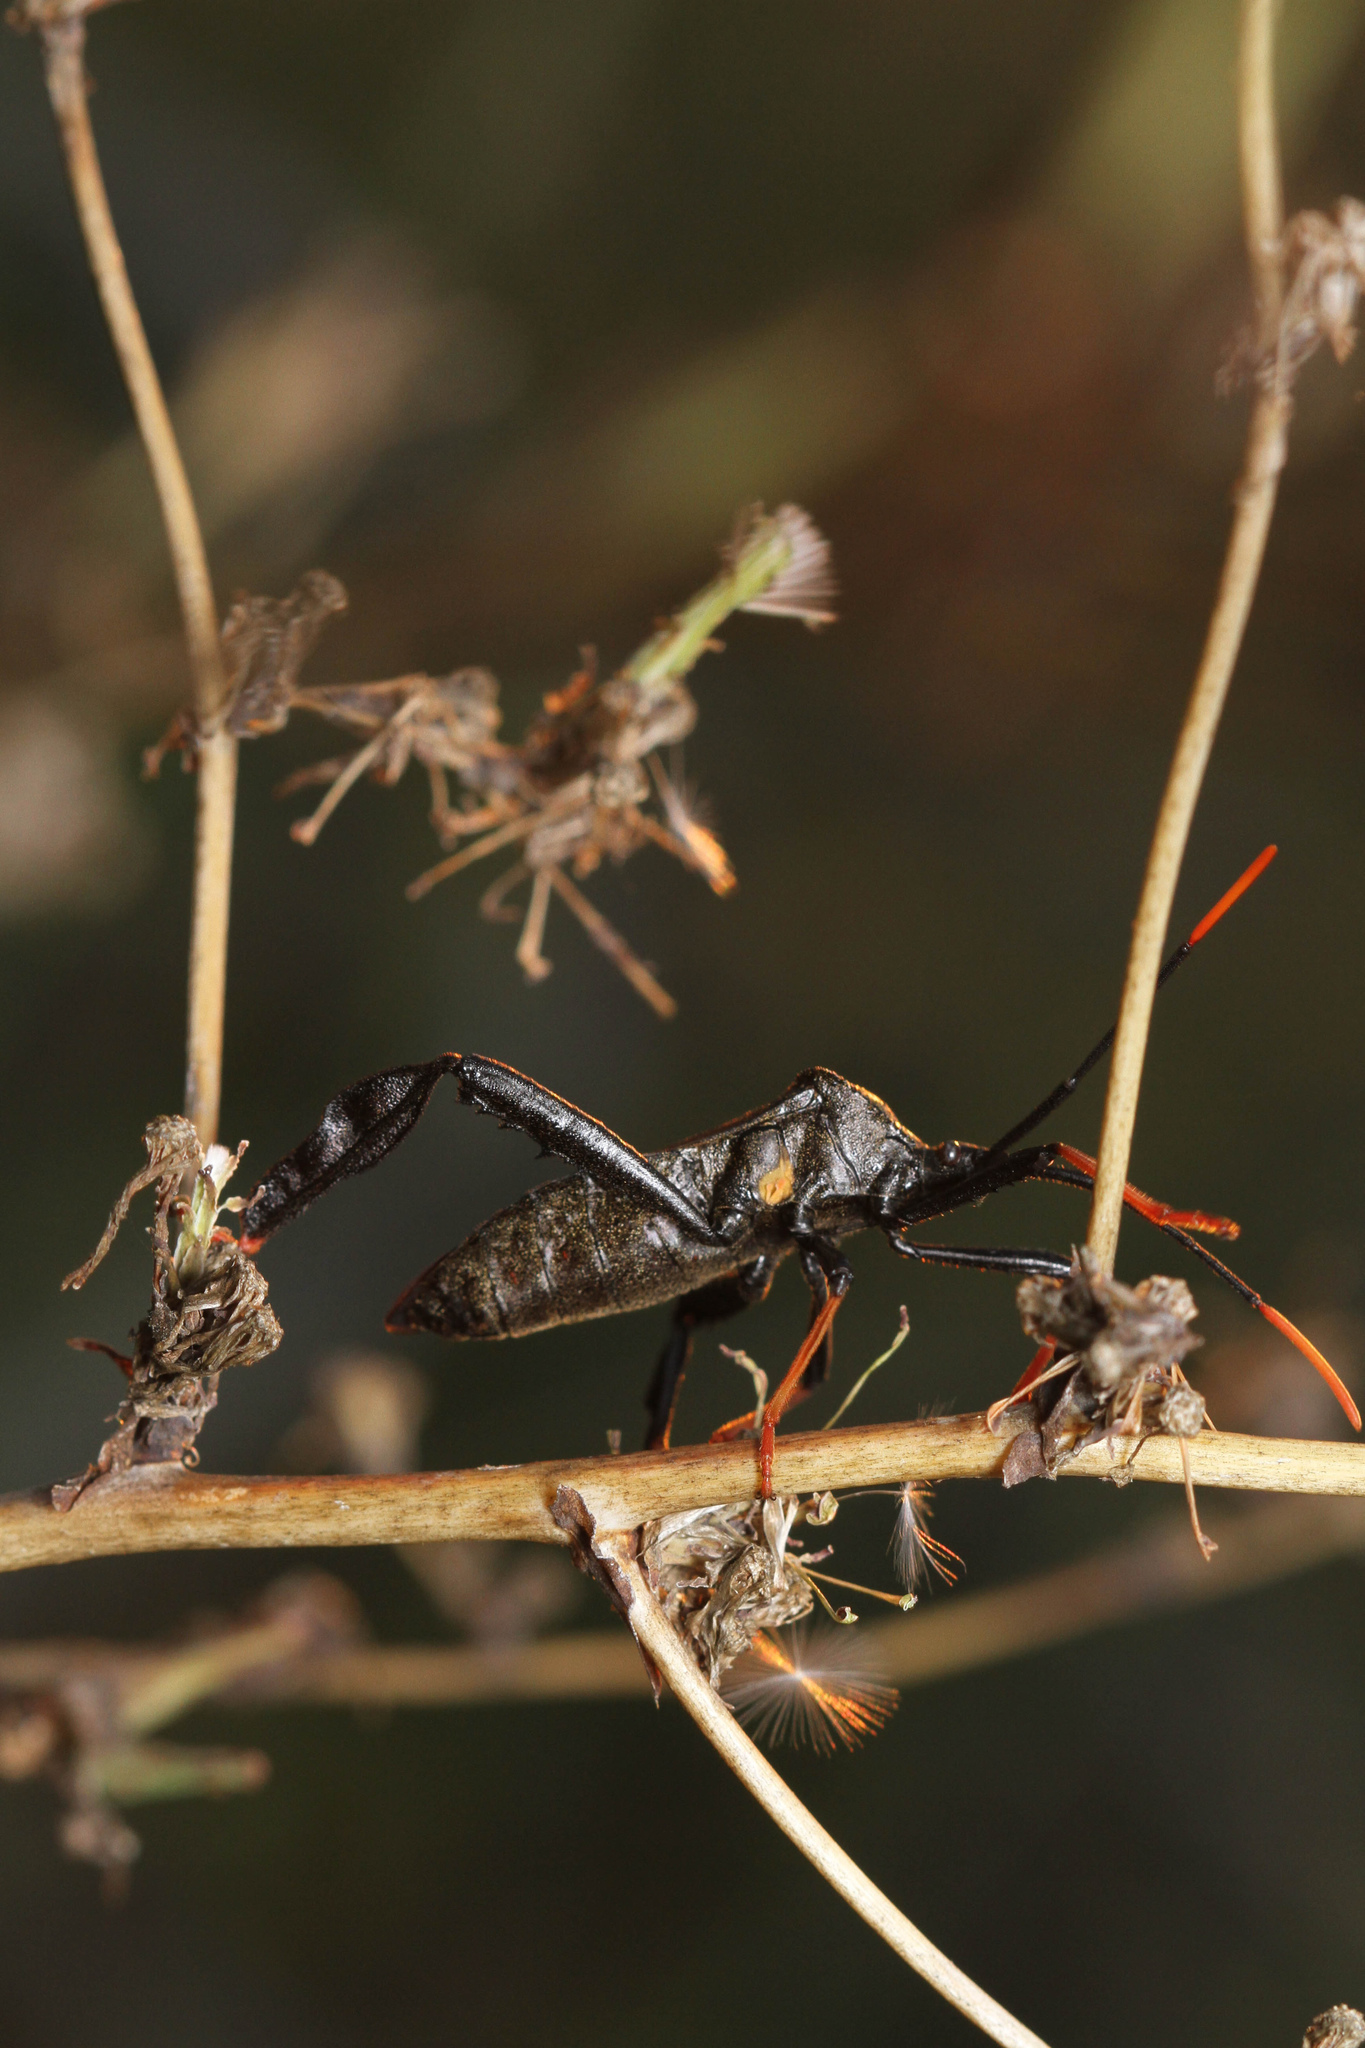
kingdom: Animalia
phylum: Arthropoda
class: Insecta
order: Hemiptera
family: Coreidae
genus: Acanthocephala
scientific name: Acanthocephala thomasi
